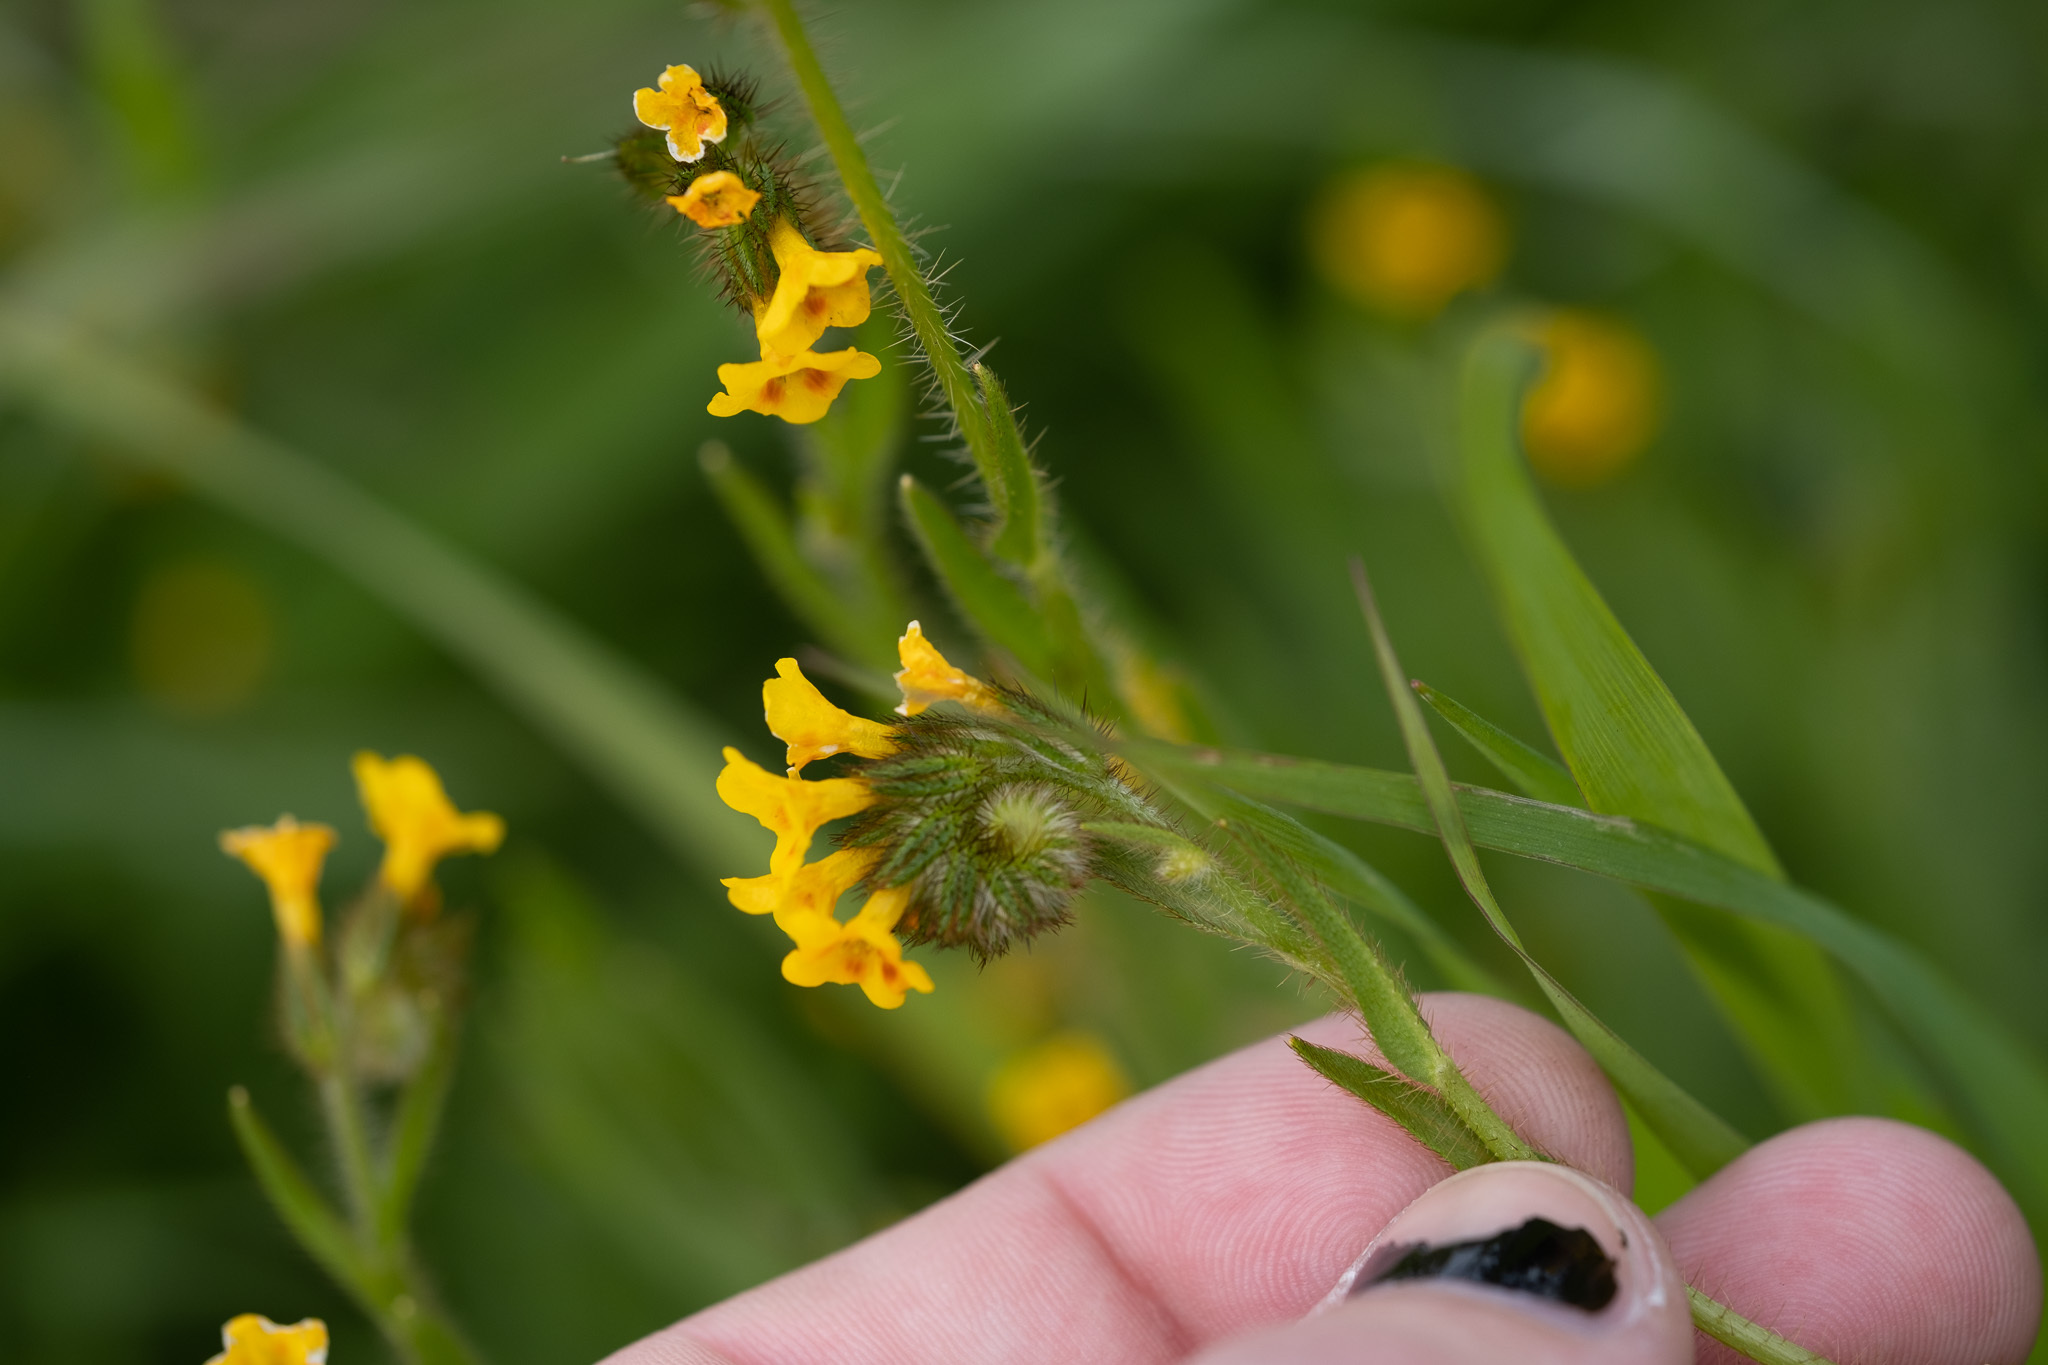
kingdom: Plantae
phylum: Tracheophyta
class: Magnoliopsida
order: Boraginales
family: Boraginaceae
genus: Amsinckia
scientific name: Amsinckia menziesii
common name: Menzies' fiddleneck
